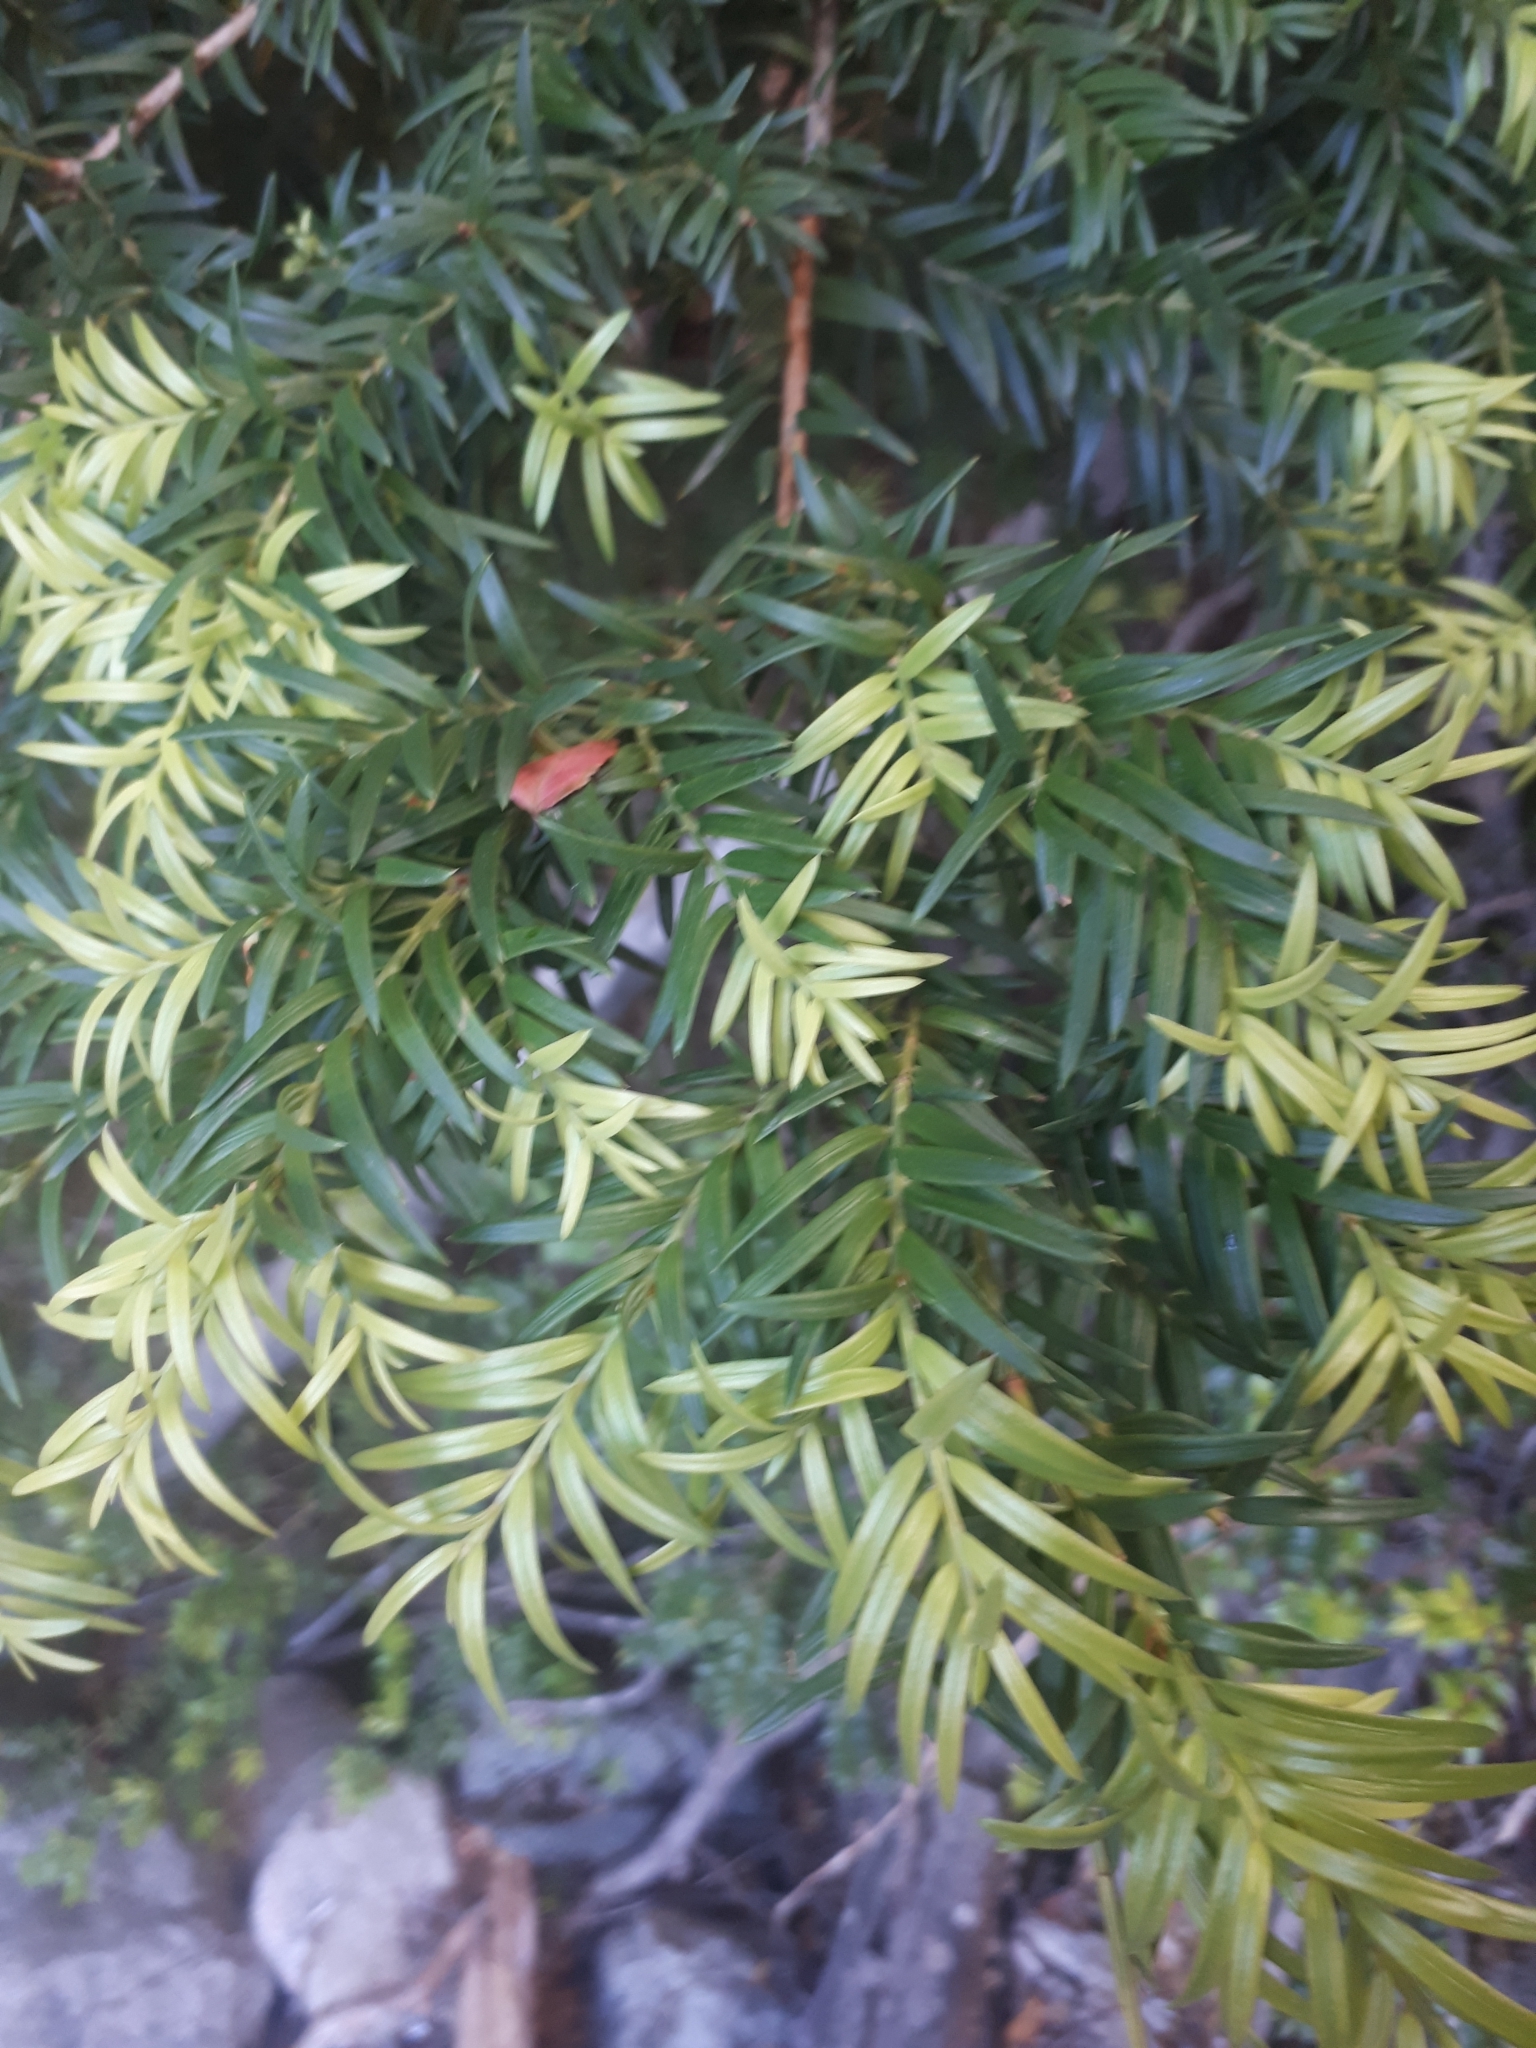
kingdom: Plantae
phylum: Tracheophyta
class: Pinopsida
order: Pinales
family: Podocarpaceae
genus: Saxegothaea
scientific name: Saxegothaea conspicua
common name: Prince albert's yew
